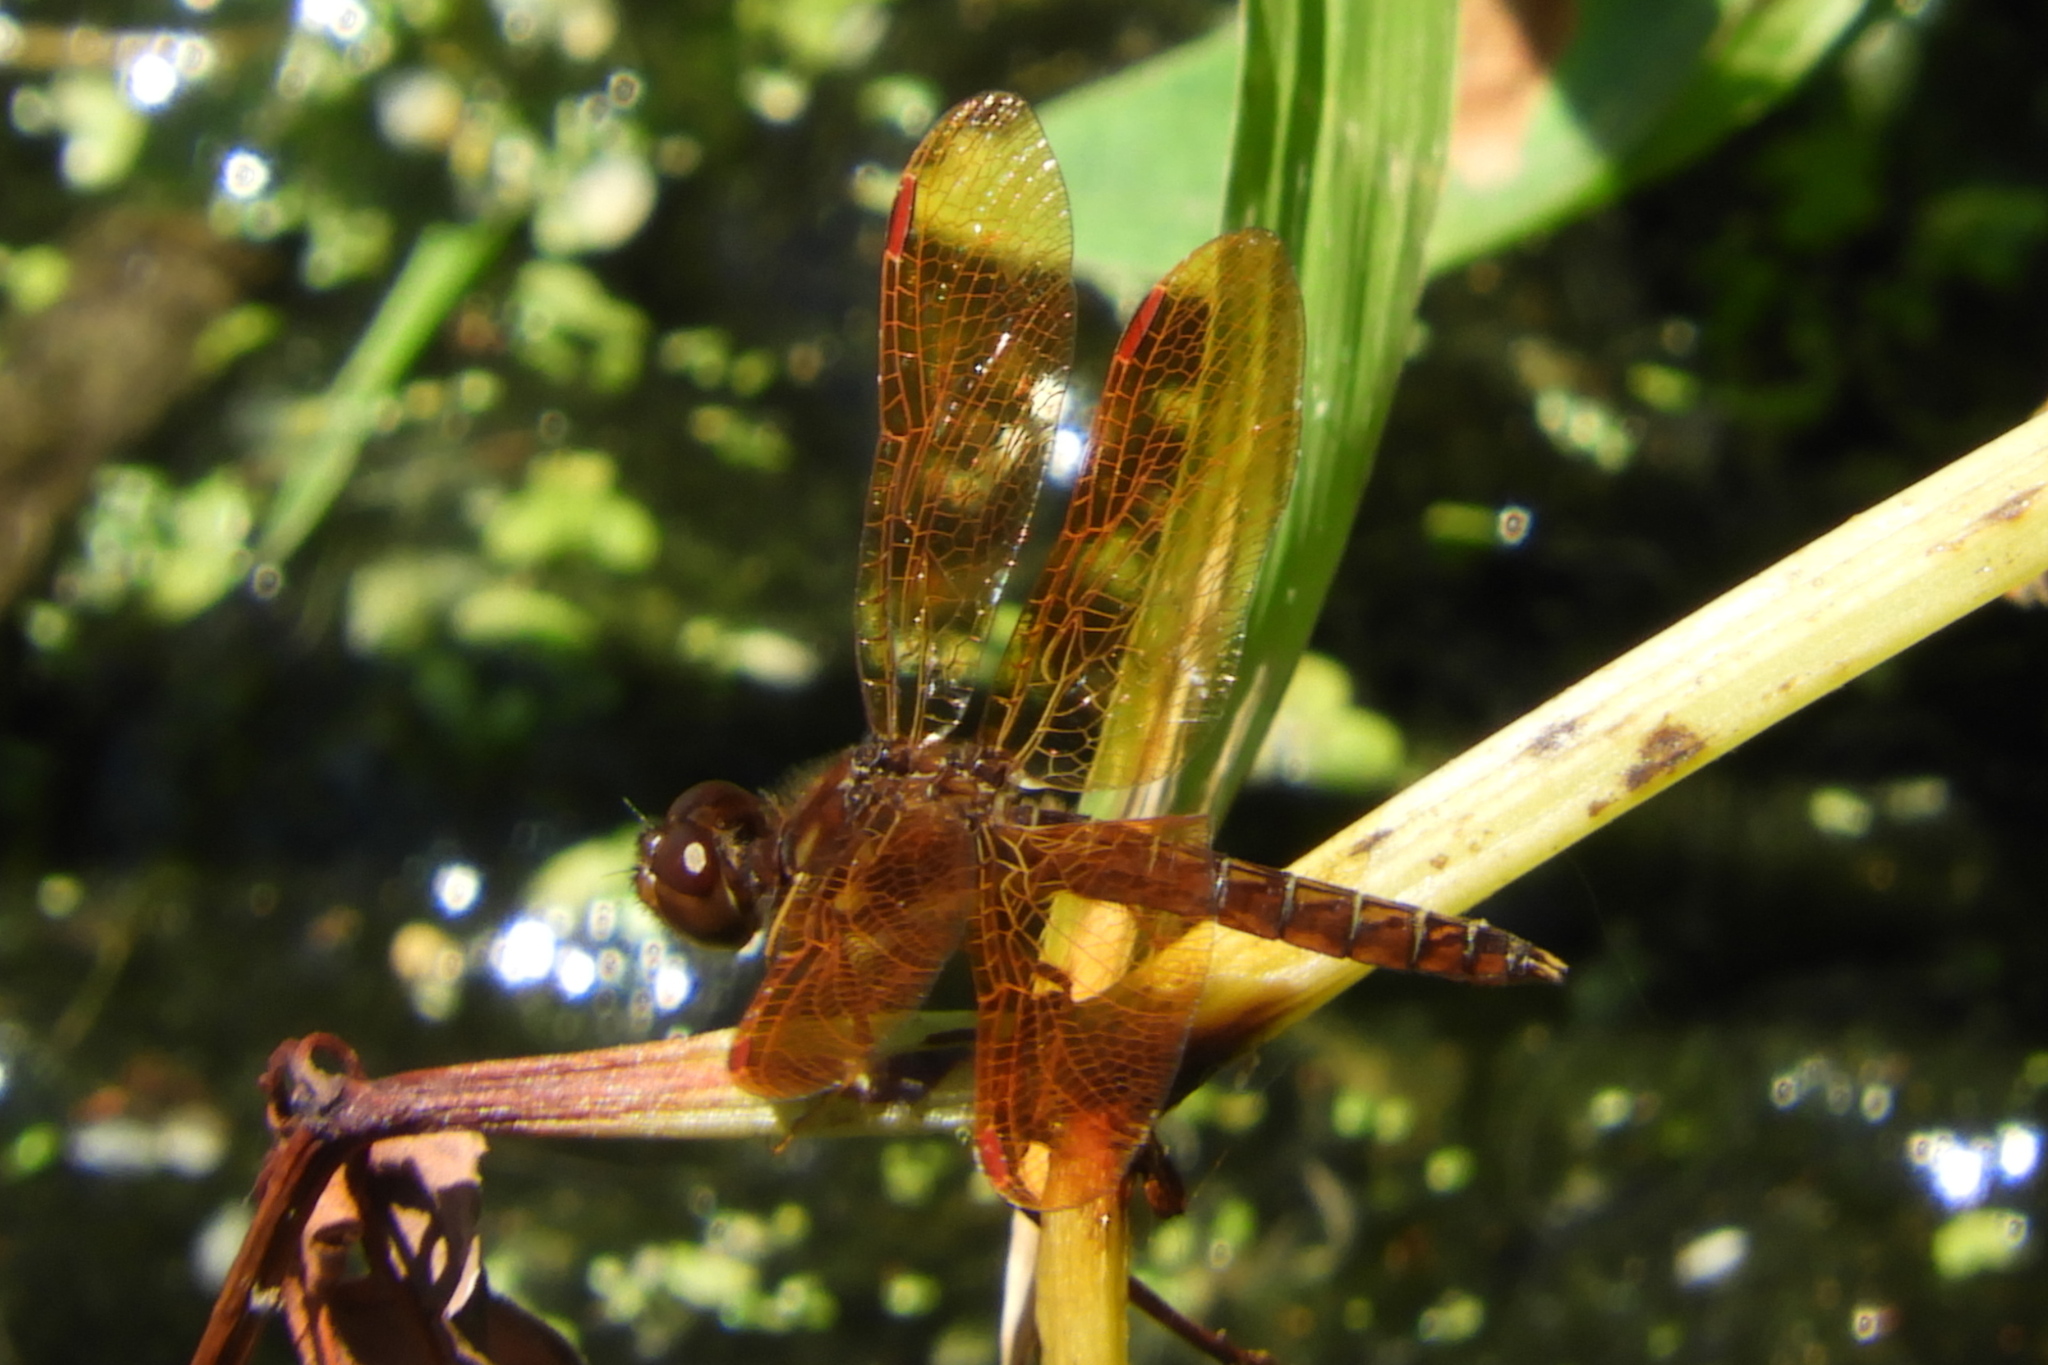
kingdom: Animalia
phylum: Arthropoda
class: Insecta
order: Odonata
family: Libellulidae
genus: Perithemis
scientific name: Perithemis tenera
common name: Eastern amberwing
